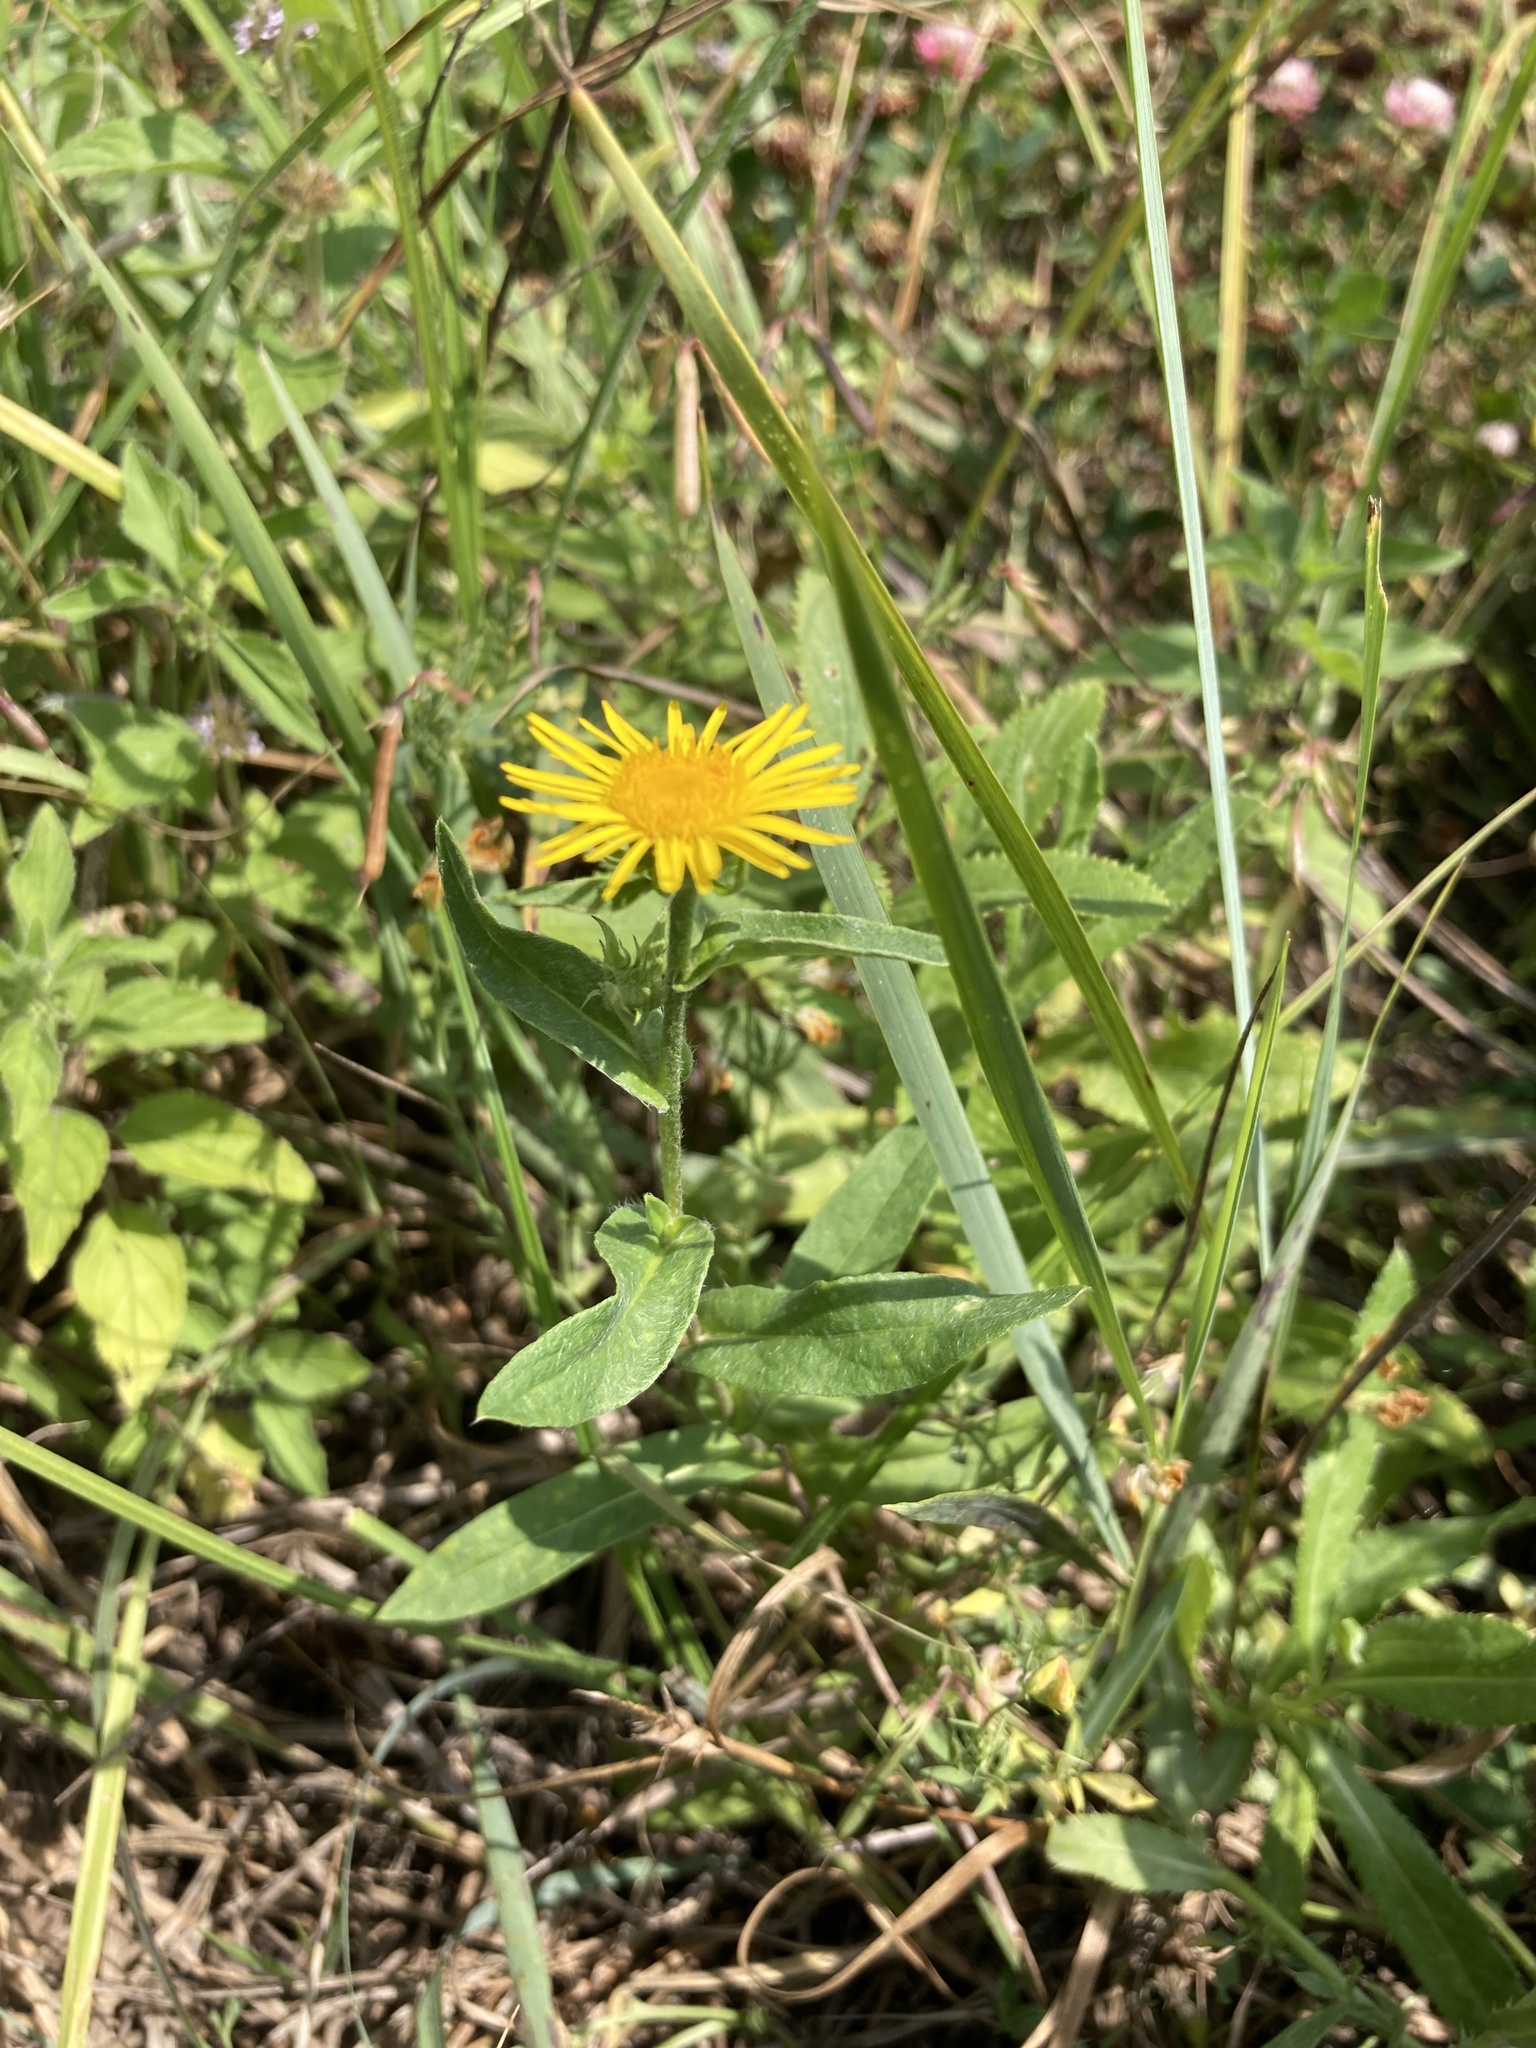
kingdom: Plantae
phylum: Tracheophyta
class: Magnoliopsida
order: Asterales
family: Asteraceae
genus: Pentanema
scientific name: Pentanema britannicum
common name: British elecampane
